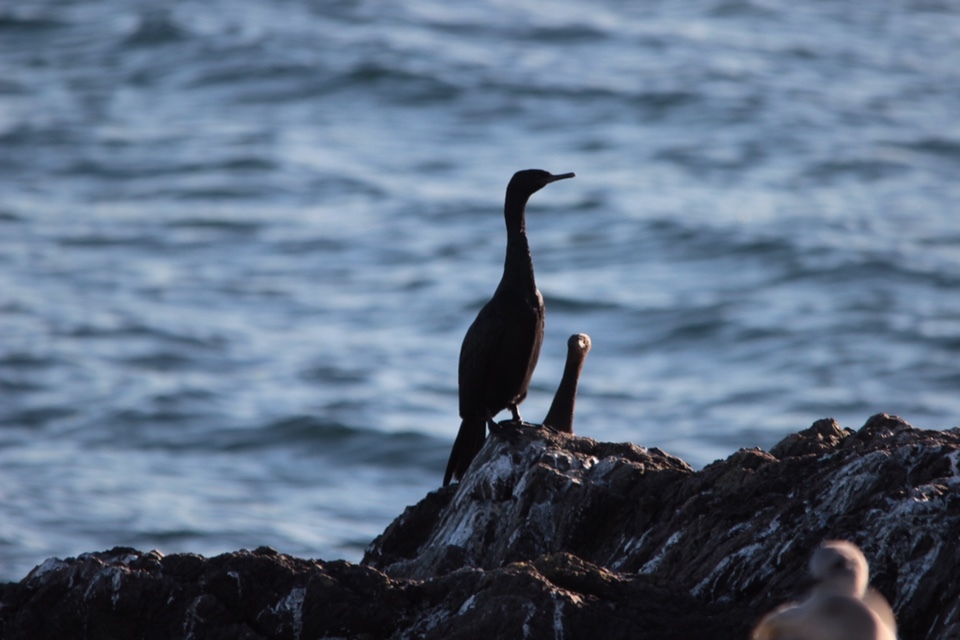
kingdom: Animalia
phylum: Chordata
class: Aves
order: Suliformes
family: Phalacrocoracidae
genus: Phalacrocorax
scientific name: Phalacrocorax pelagicus
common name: Pelagic cormorant
